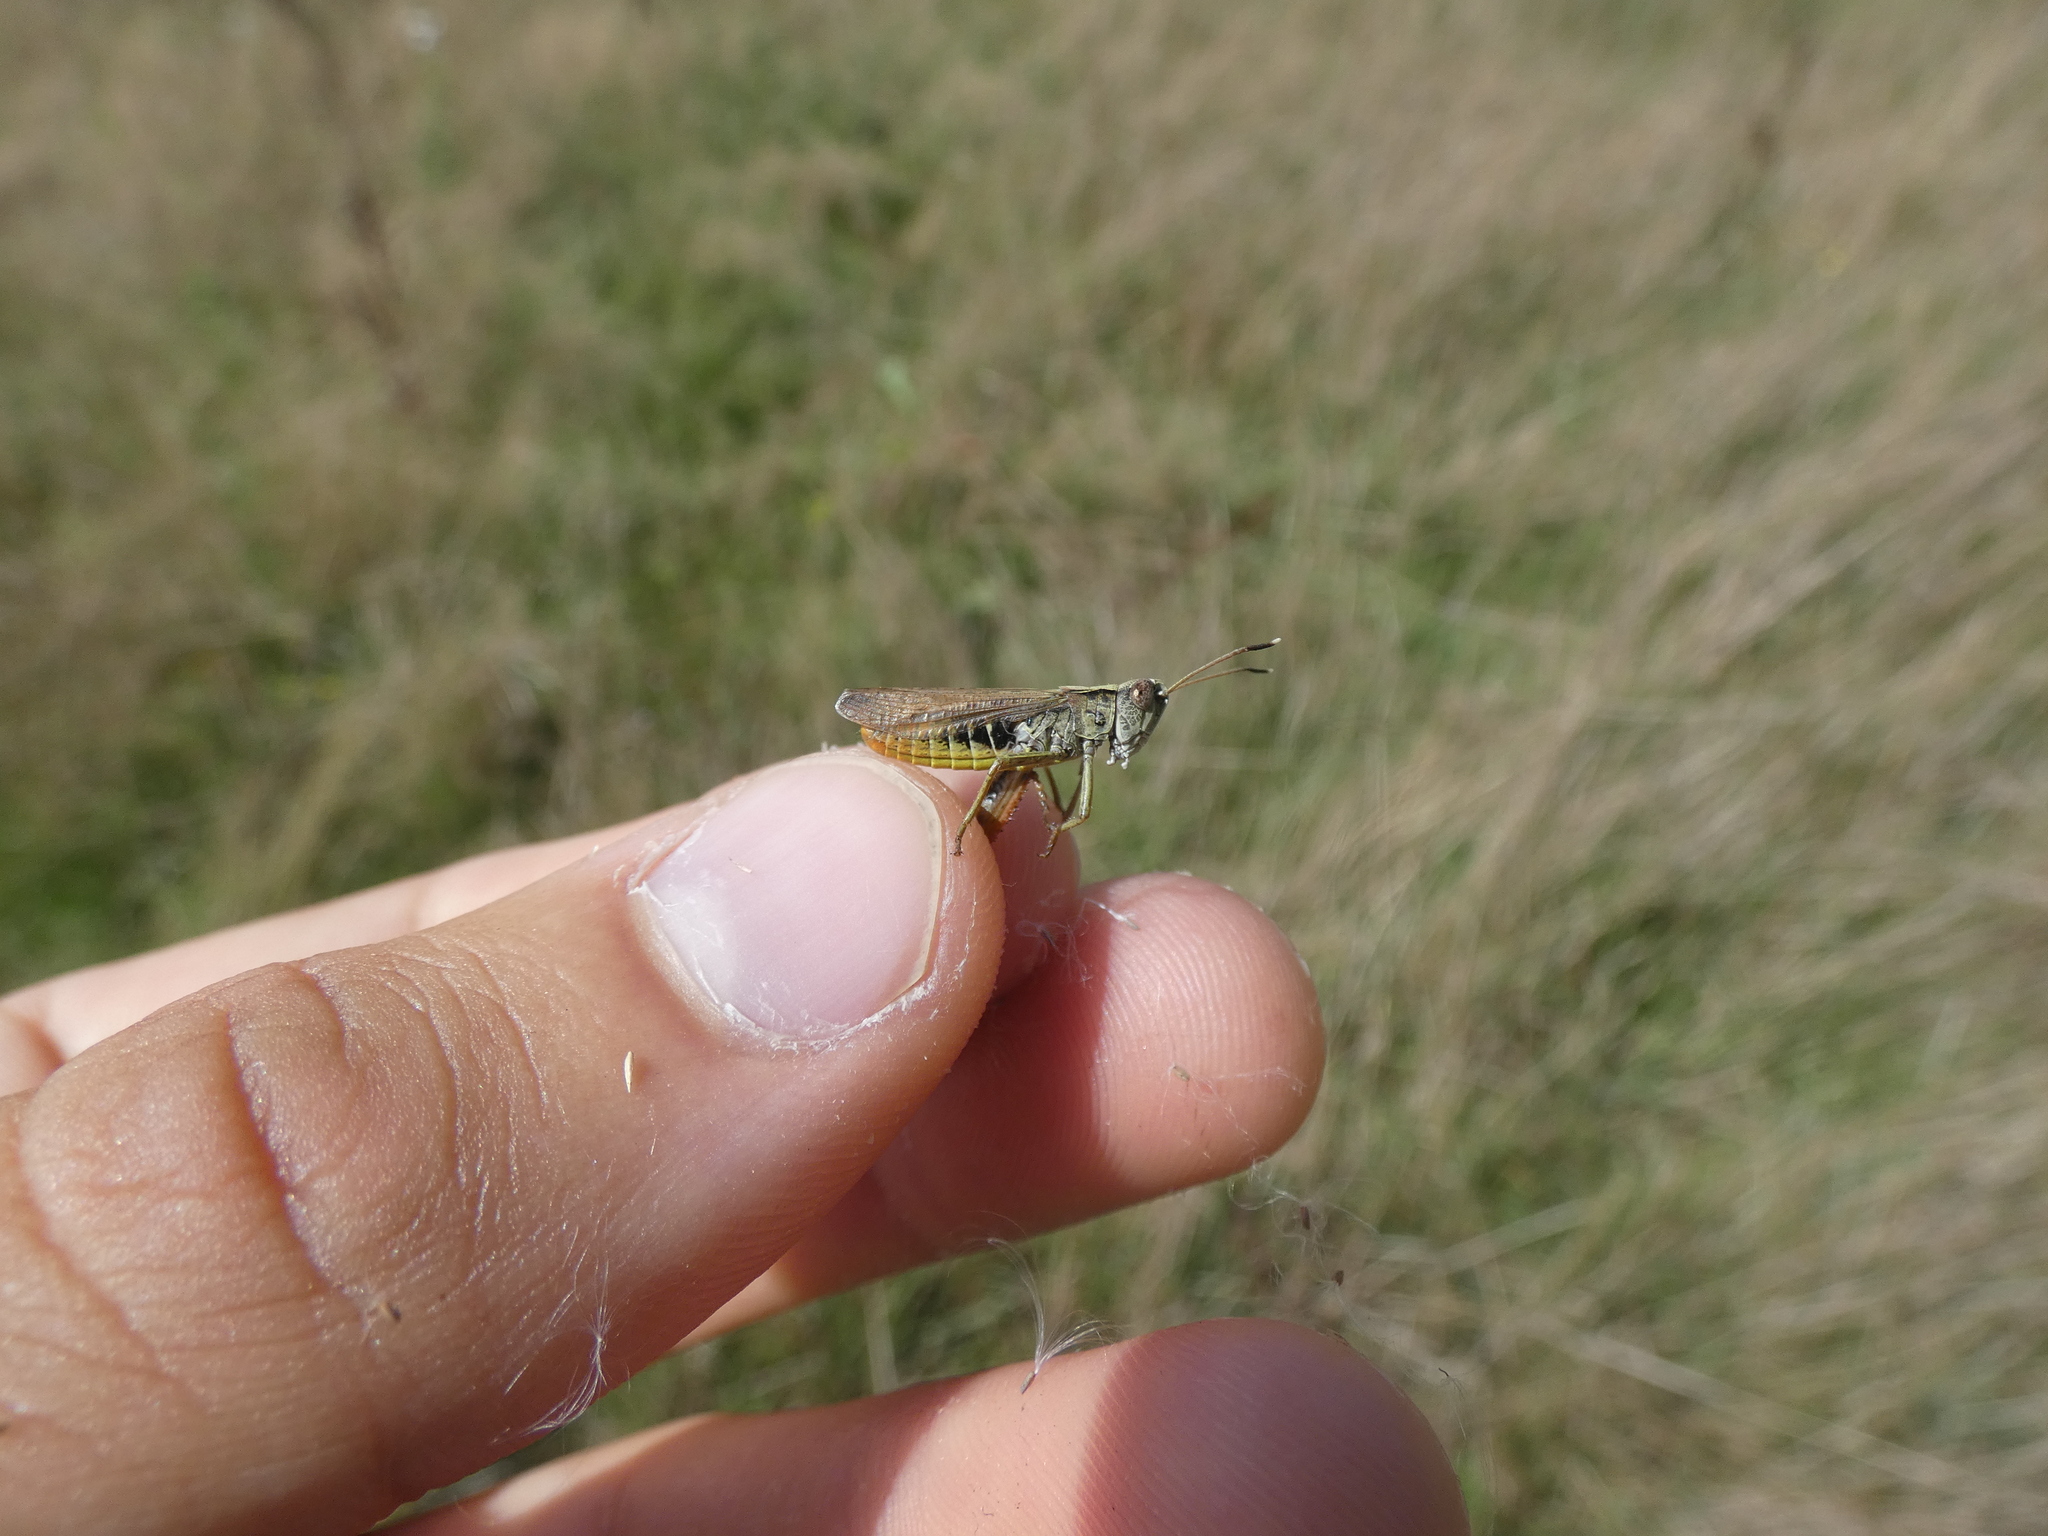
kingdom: Animalia
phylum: Arthropoda
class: Insecta
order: Orthoptera
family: Acrididae
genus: Gomphocerippus
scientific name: Gomphocerippus rufus
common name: Rufous grasshopper
